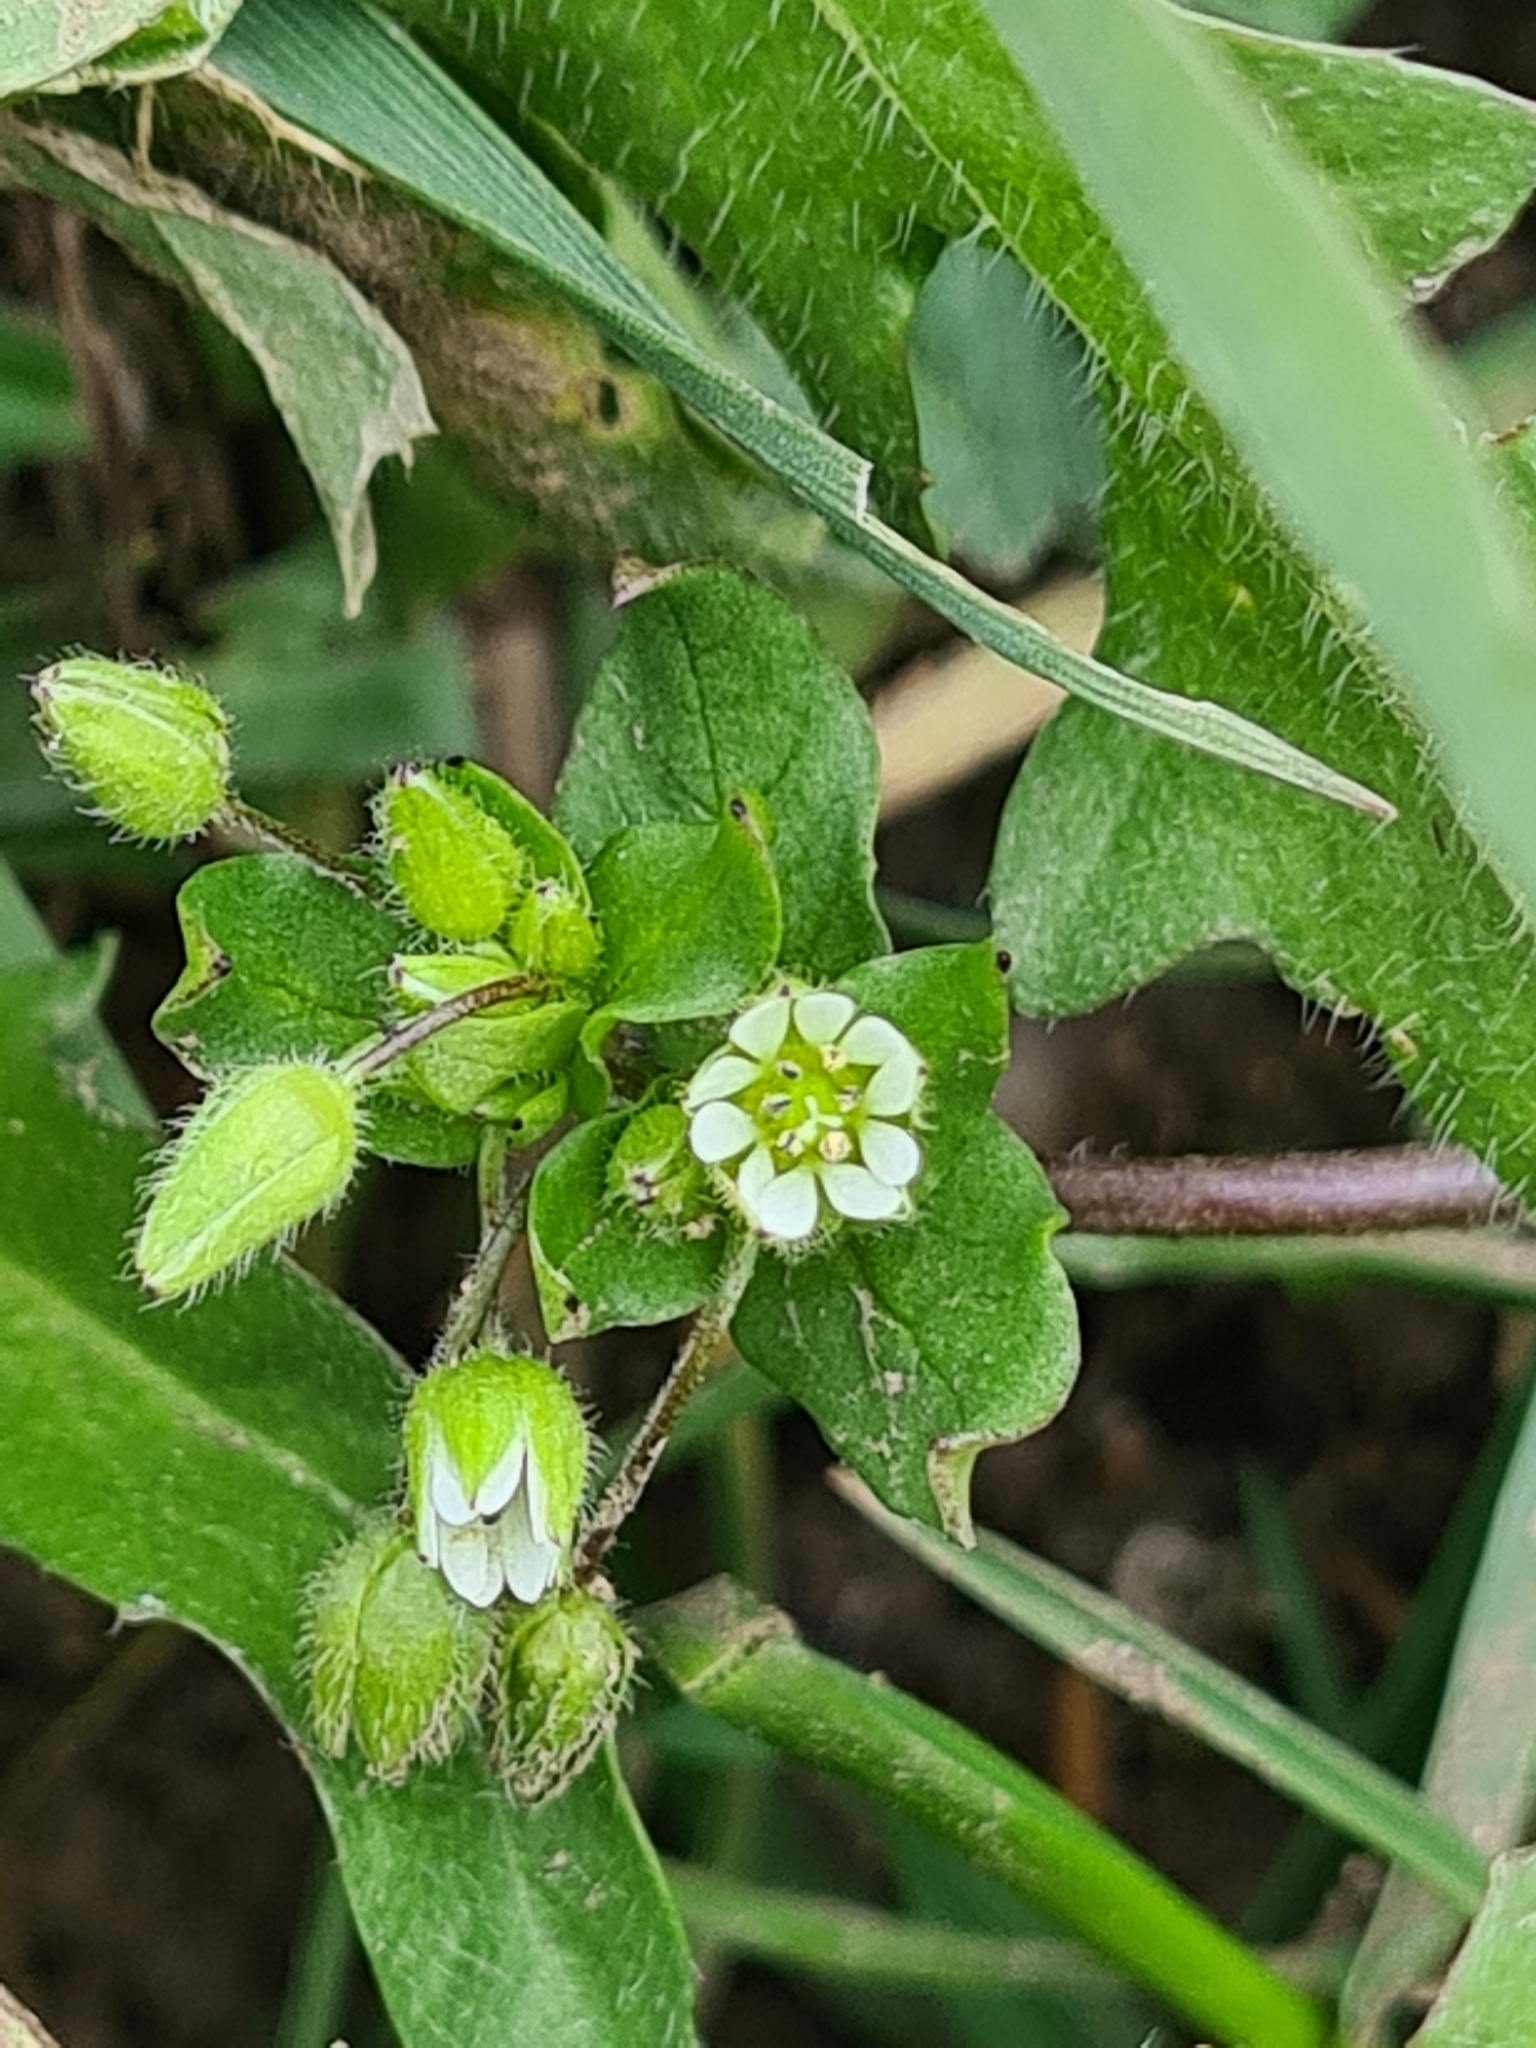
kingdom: Plantae
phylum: Tracheophyta
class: Magnoliopsida
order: Caryophyllales
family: Caryophyllaceae
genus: Stellaria
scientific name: Stellaria
